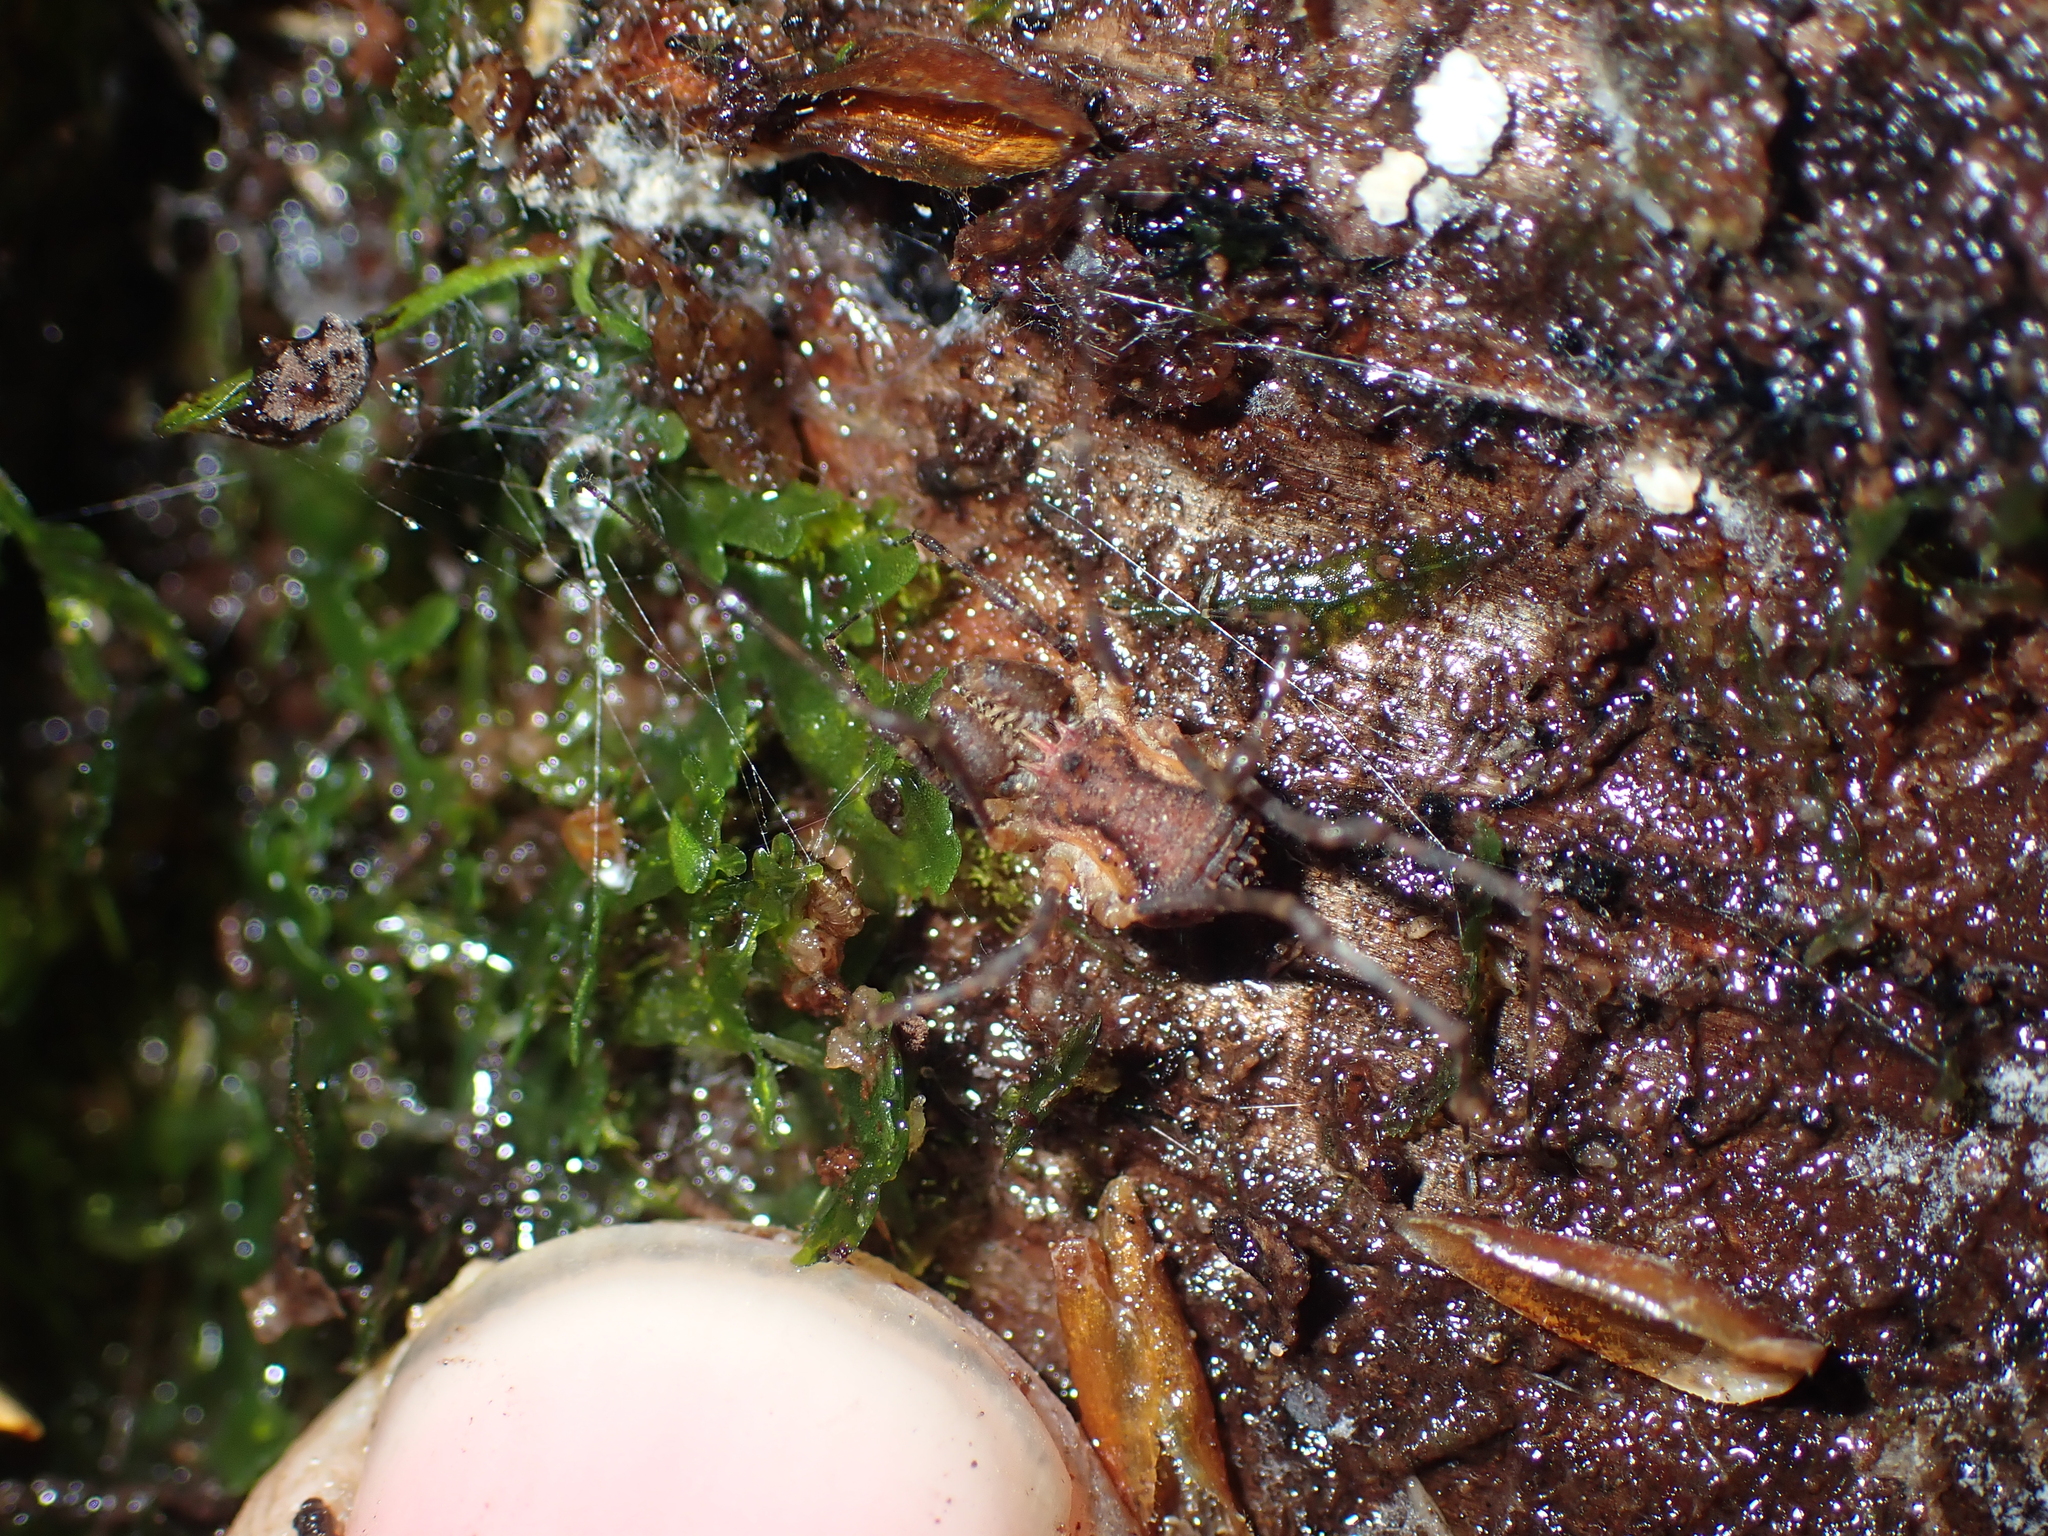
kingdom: Animalia
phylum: Arthropoda
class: Arachnida
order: Opiliones
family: Triaenonychidae
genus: Algidia
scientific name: Algidia interrupta
